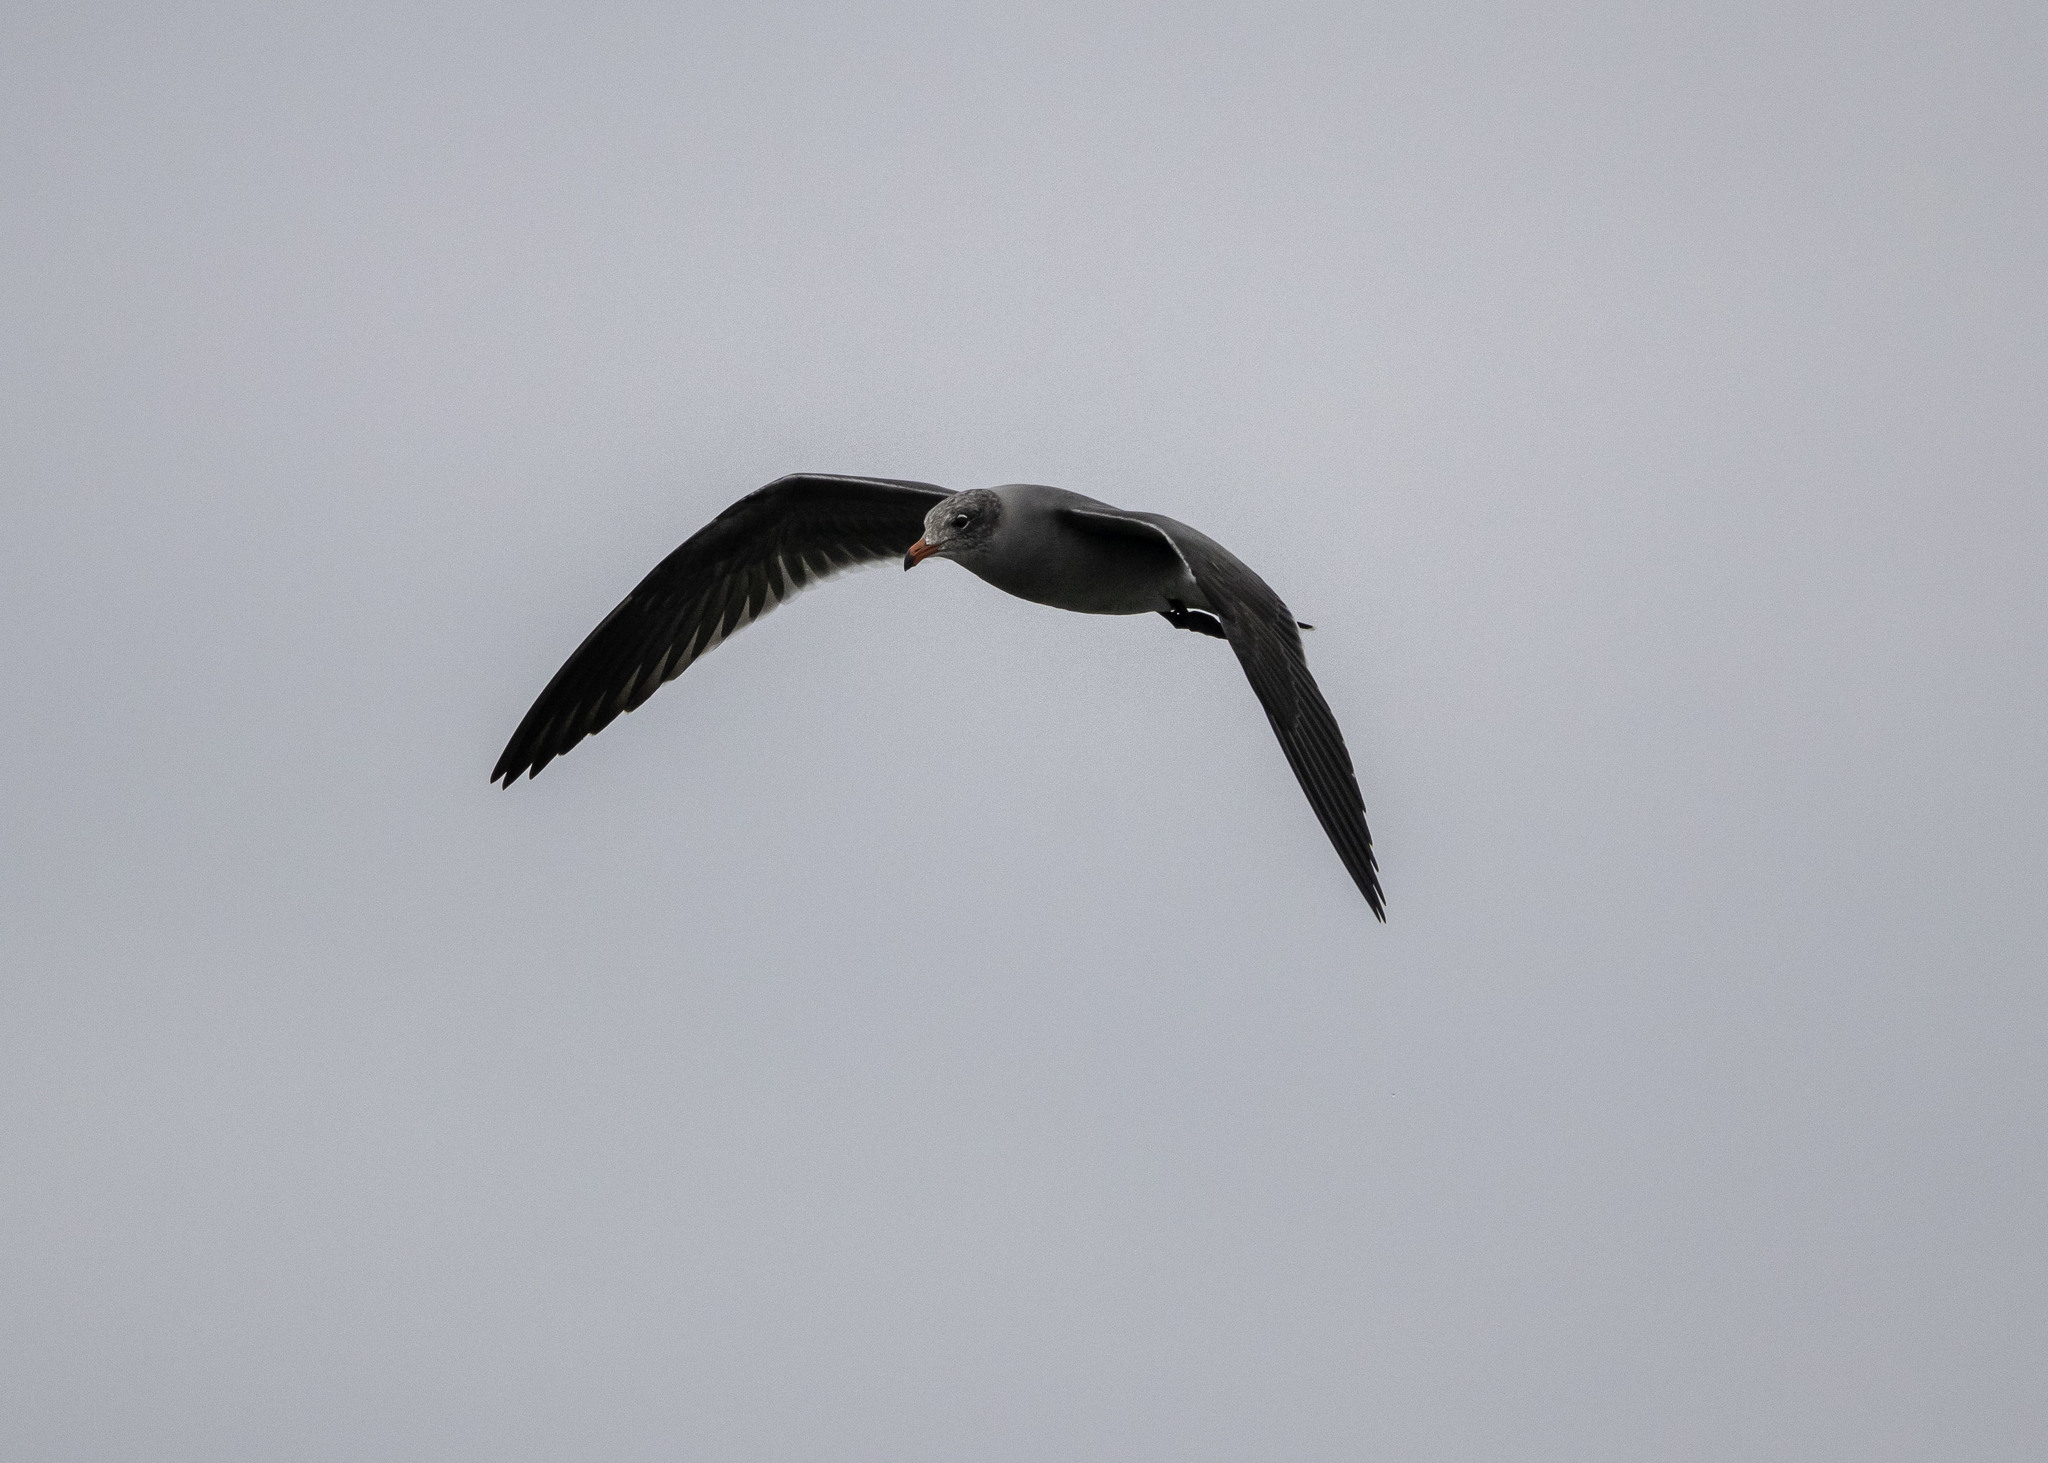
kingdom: Animalia
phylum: Chordata
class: Aves
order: Charadriiformes
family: Laridae
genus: Larus
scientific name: Larus heermanni
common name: Heermann's gull
